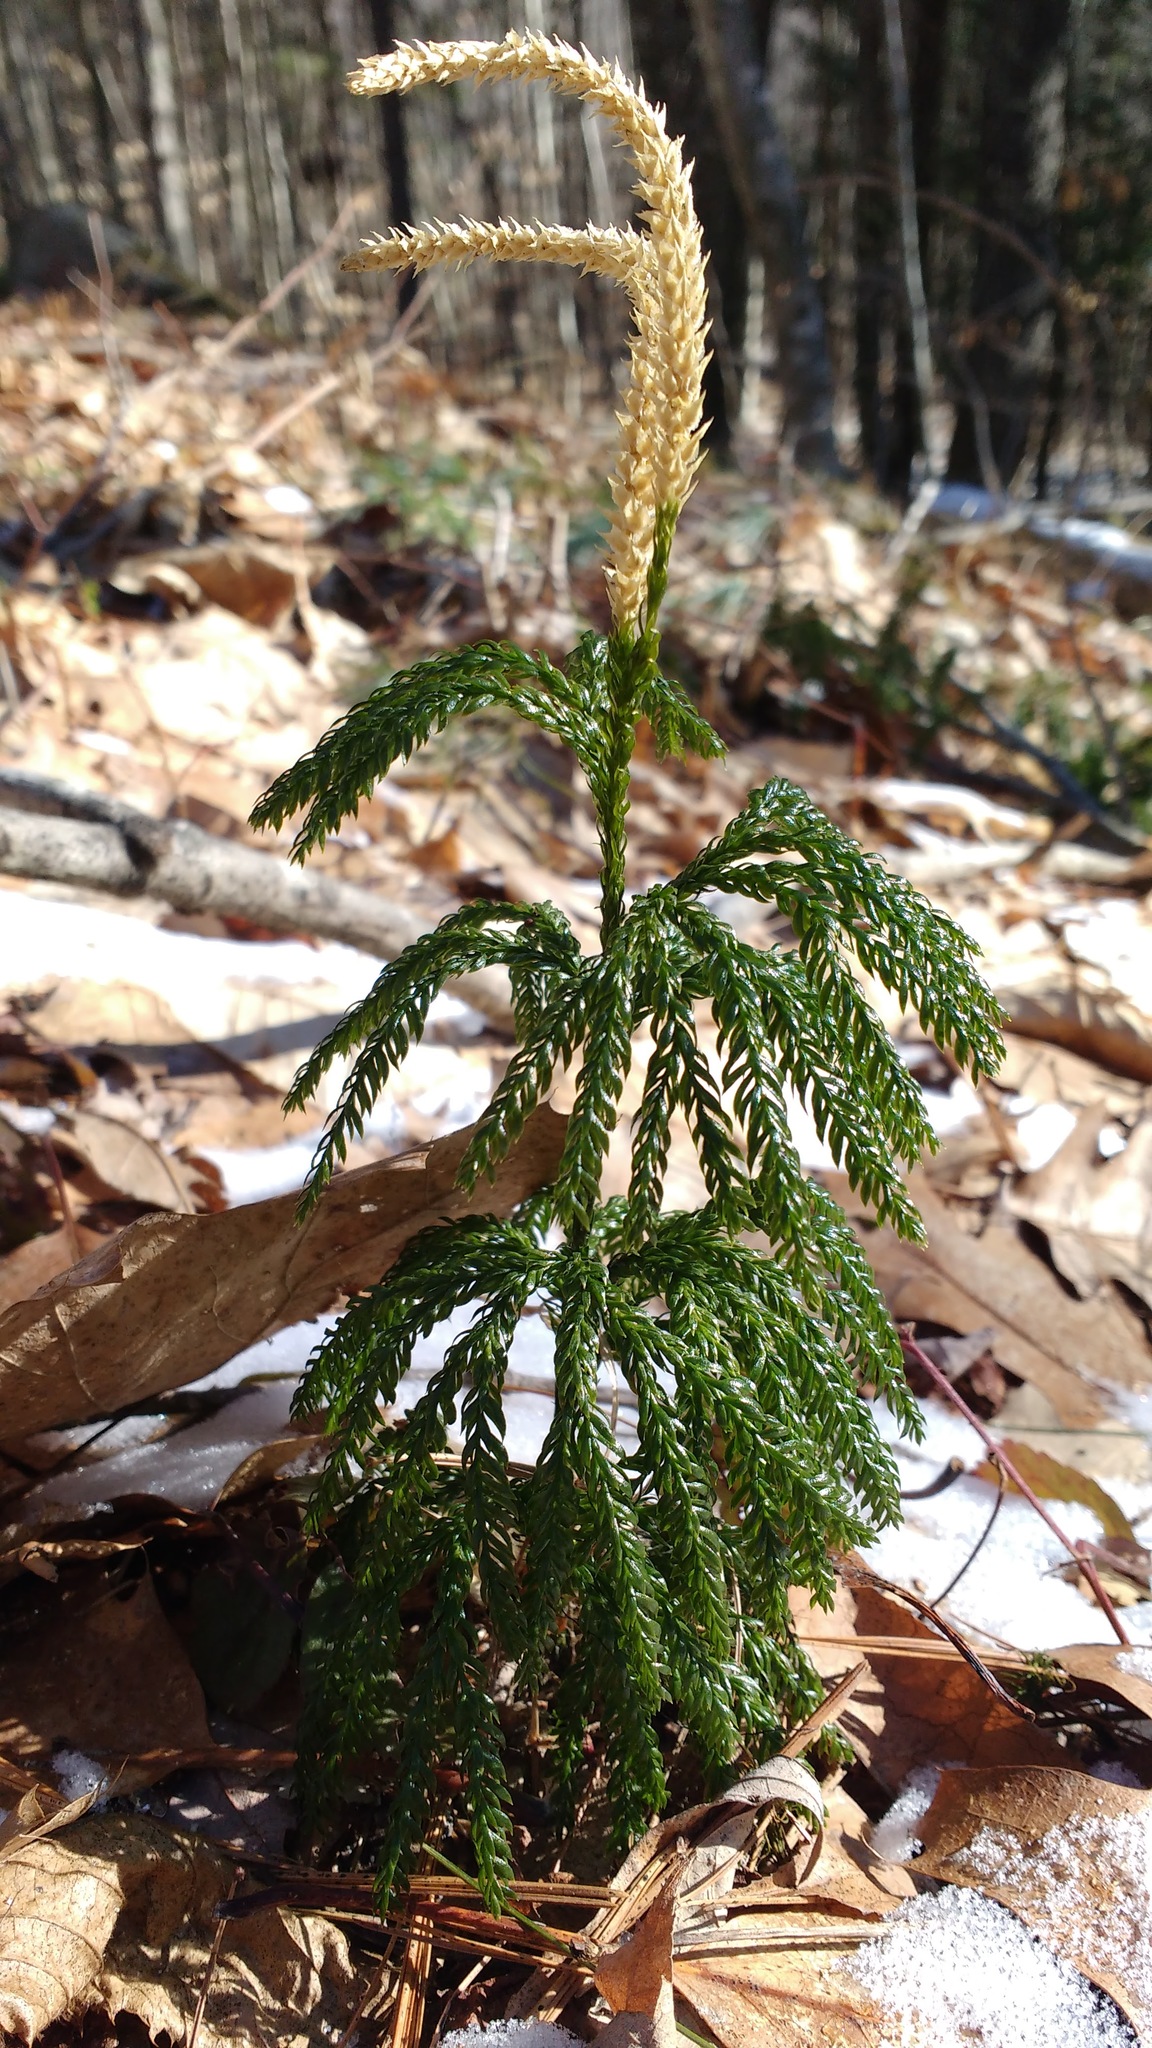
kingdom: Plantae
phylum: Tracheophyta
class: Lycopodiopsida
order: Lycopodiales
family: Lycopodiaceae
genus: Dendrolycopodium
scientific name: Dendrolycopodium obscurum
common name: Common ground-pine
